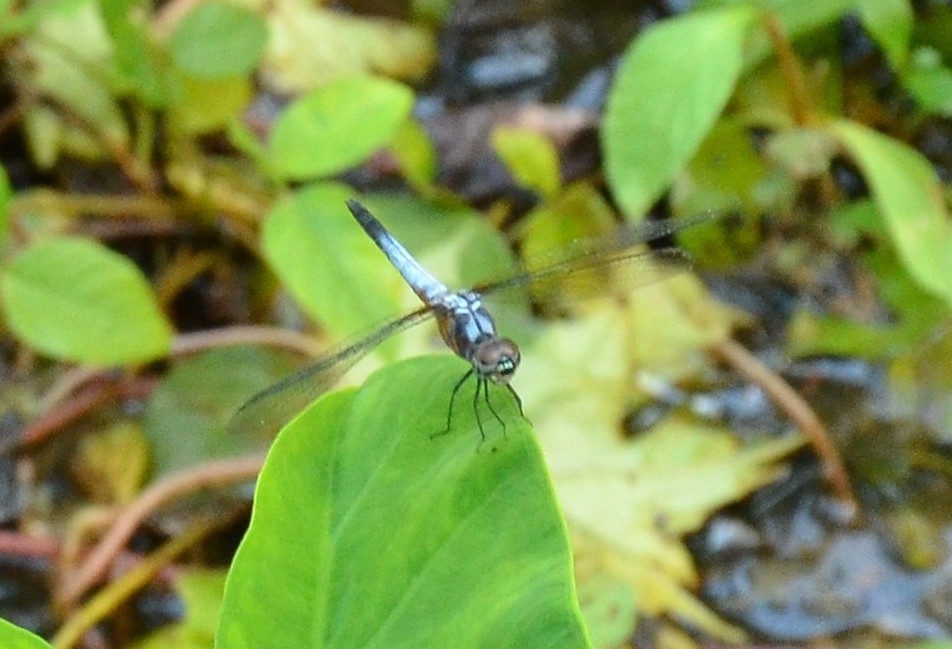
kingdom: Animalia
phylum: Arthropoda
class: Insecta
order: Odonata
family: Libellulidae
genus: Brachydiplax
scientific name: Brachydiplax chalybea
